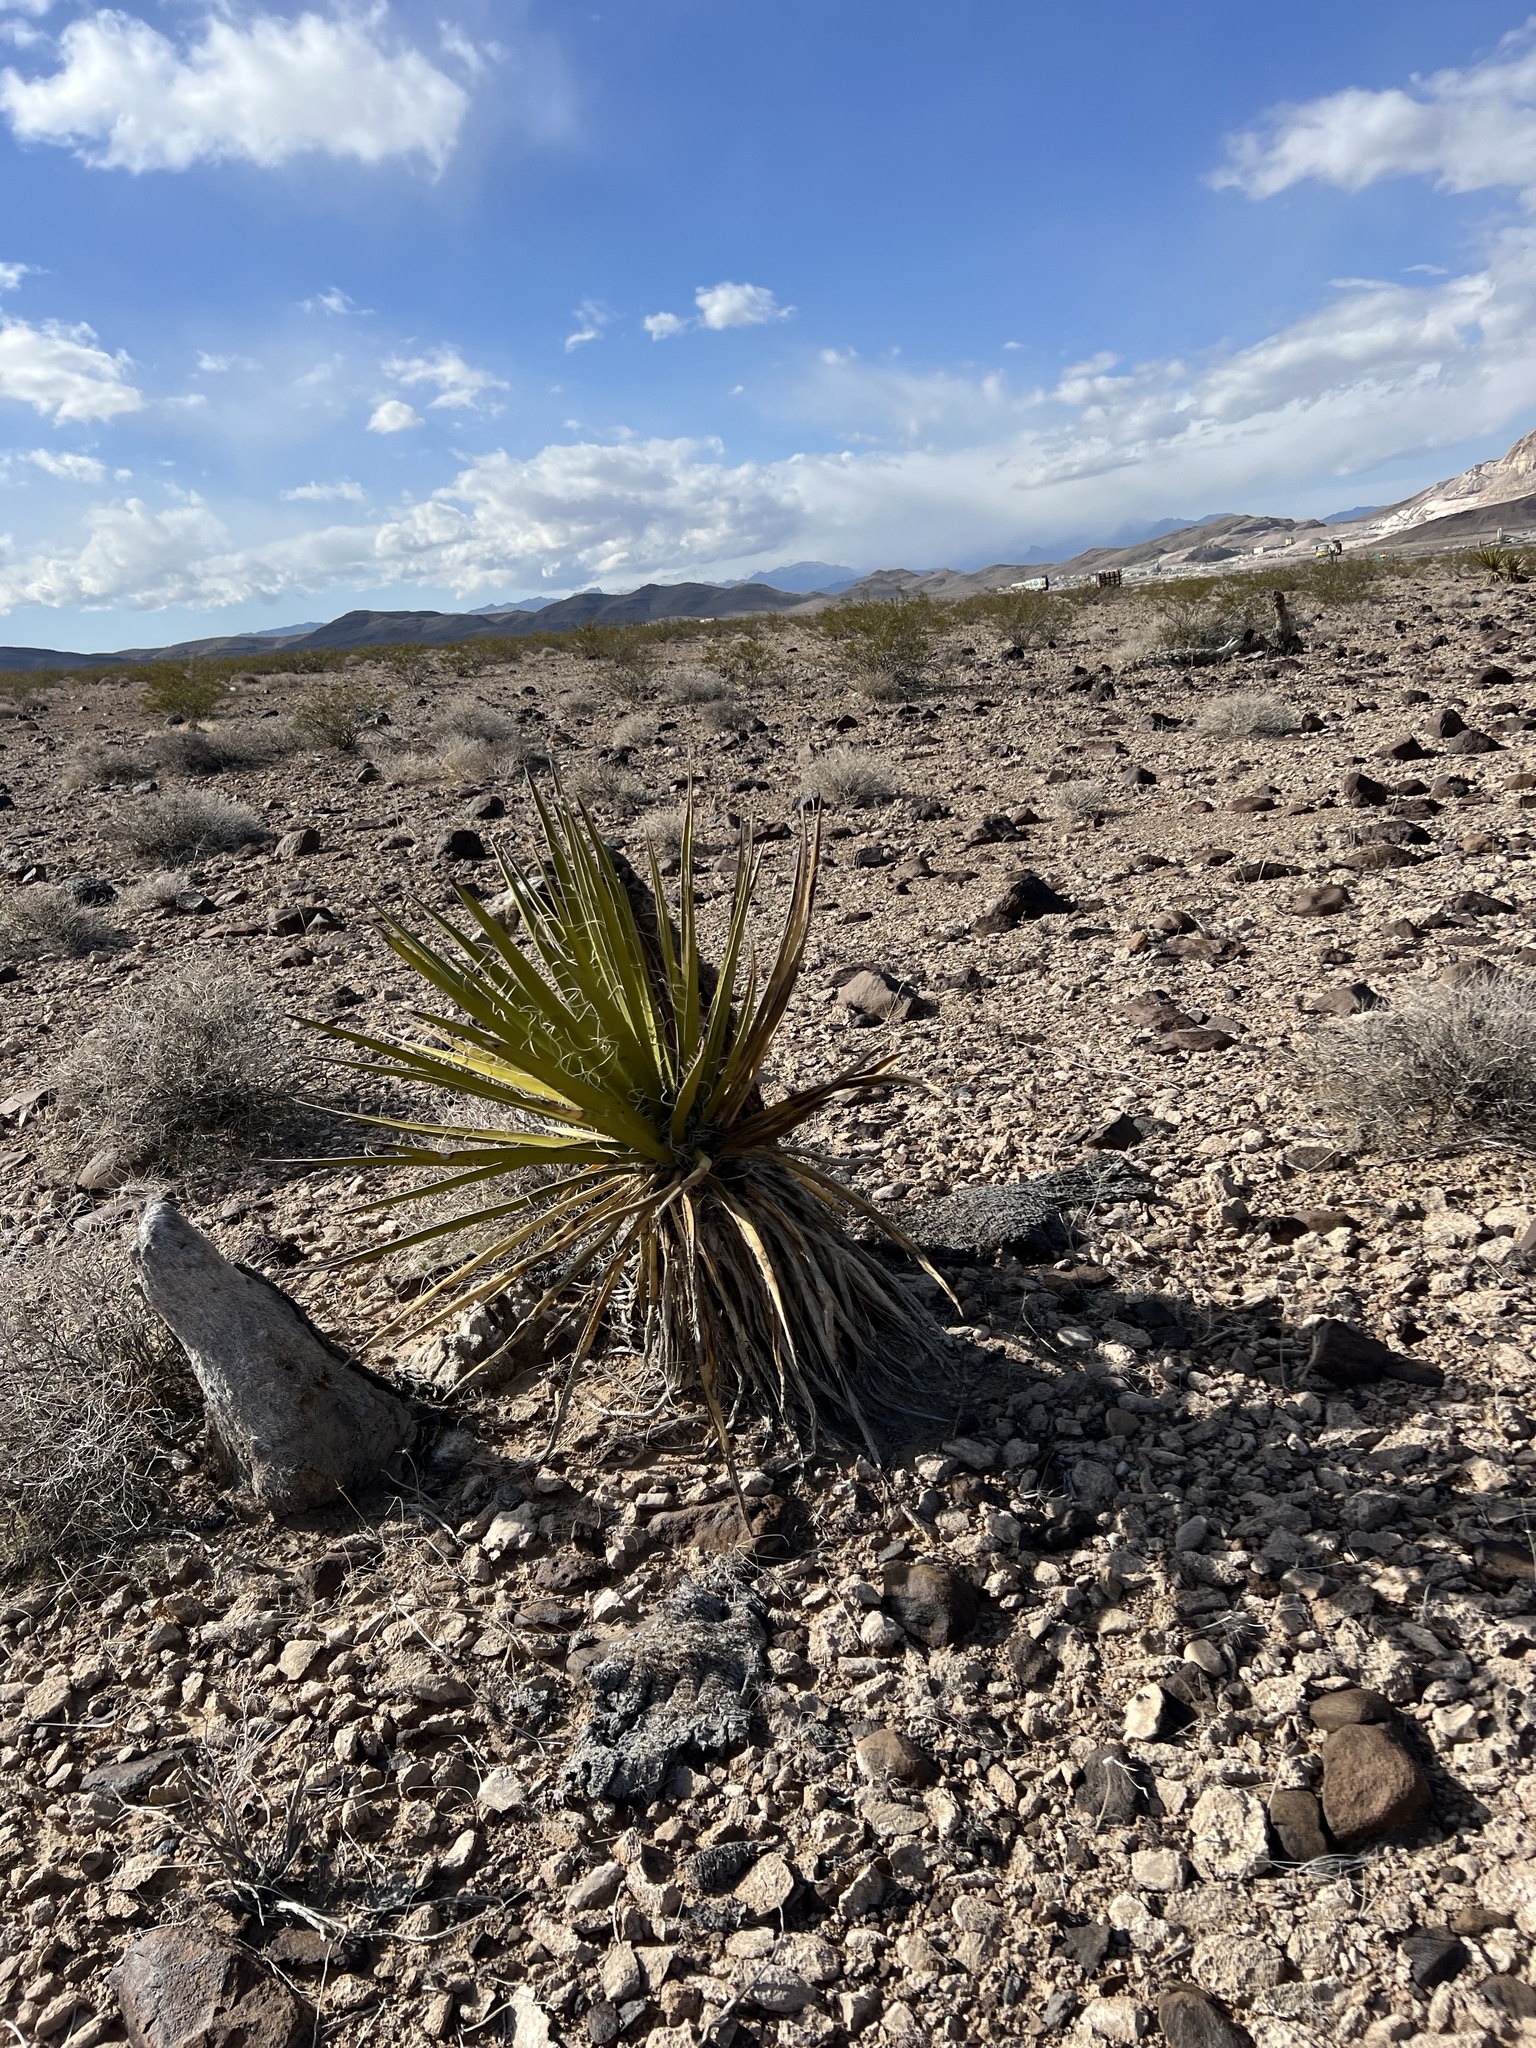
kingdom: Plantae
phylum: Tracheophyta
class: Liliopsida
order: Asparagales
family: Asparagaceae
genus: Yucca
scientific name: Yucca schidigera
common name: Mojave yucca
